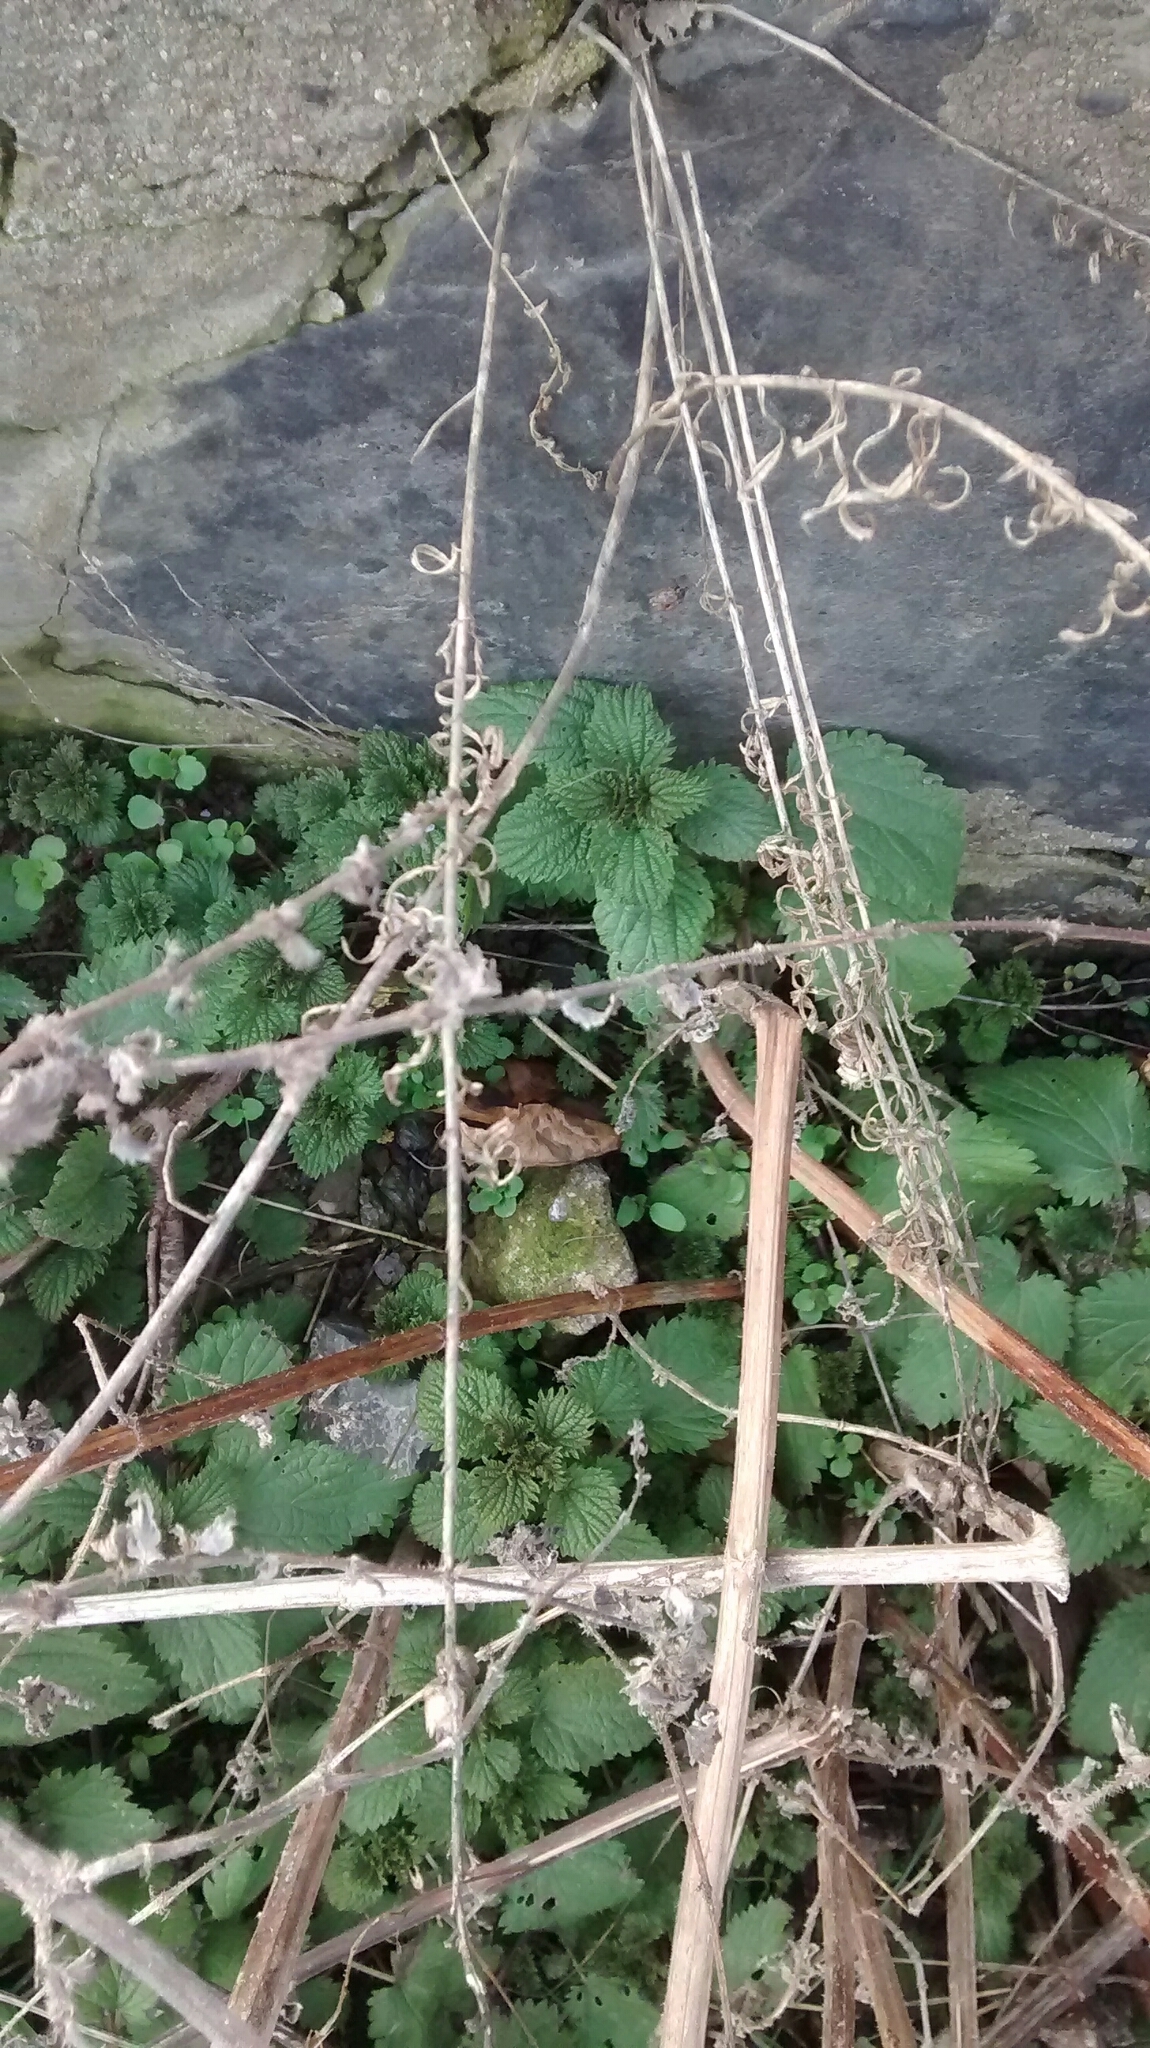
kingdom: Plantae
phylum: Tracheophyta
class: Magnoliopsida
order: Rosales
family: Urticaceae
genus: Urtica
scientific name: Urtica dioica
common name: Common nettle
